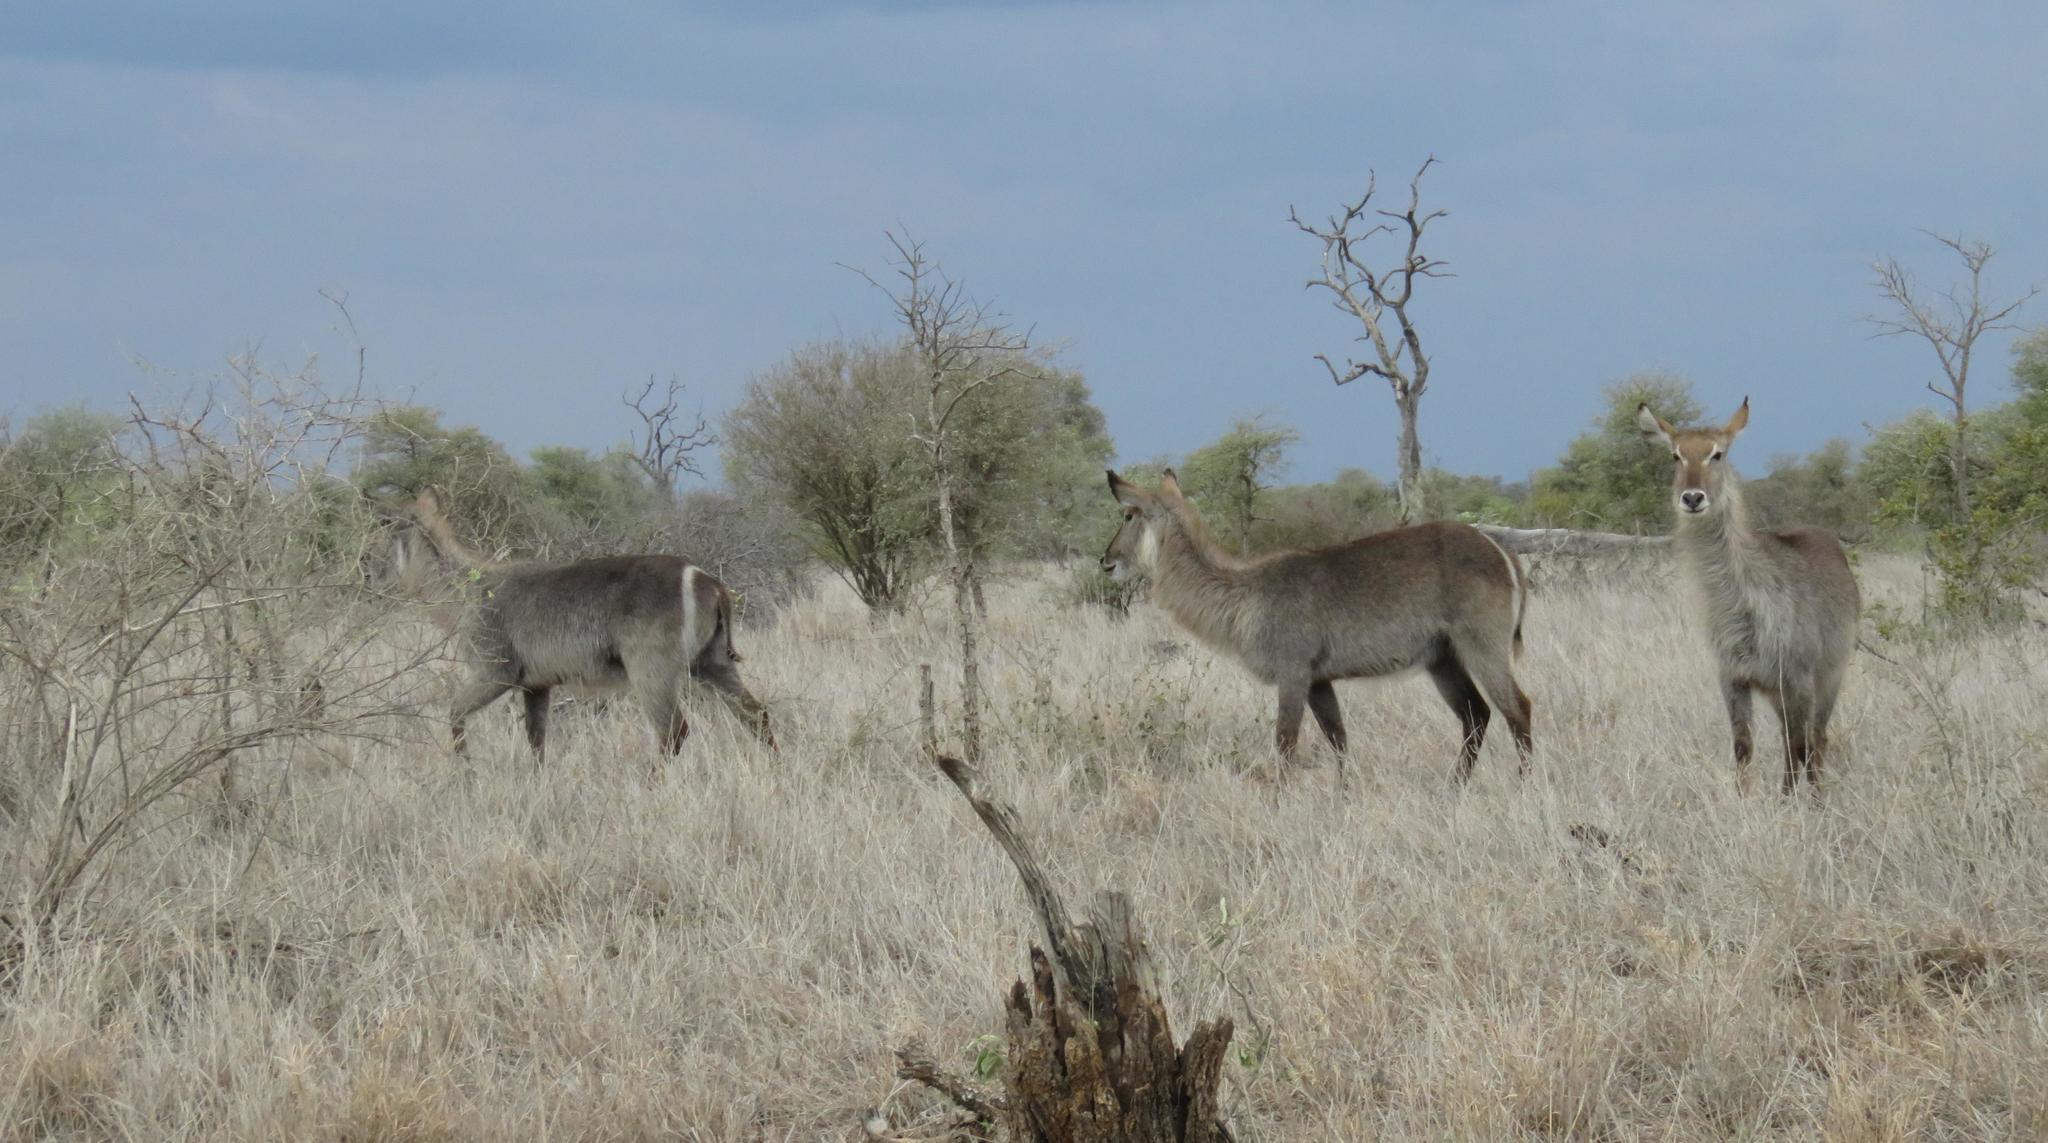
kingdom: Animalia
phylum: Chordata
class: Mammalia
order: Artiodactyla
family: Bovidae
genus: Kobus
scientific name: Kobus ellipsiprymnus
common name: Waterbuck
